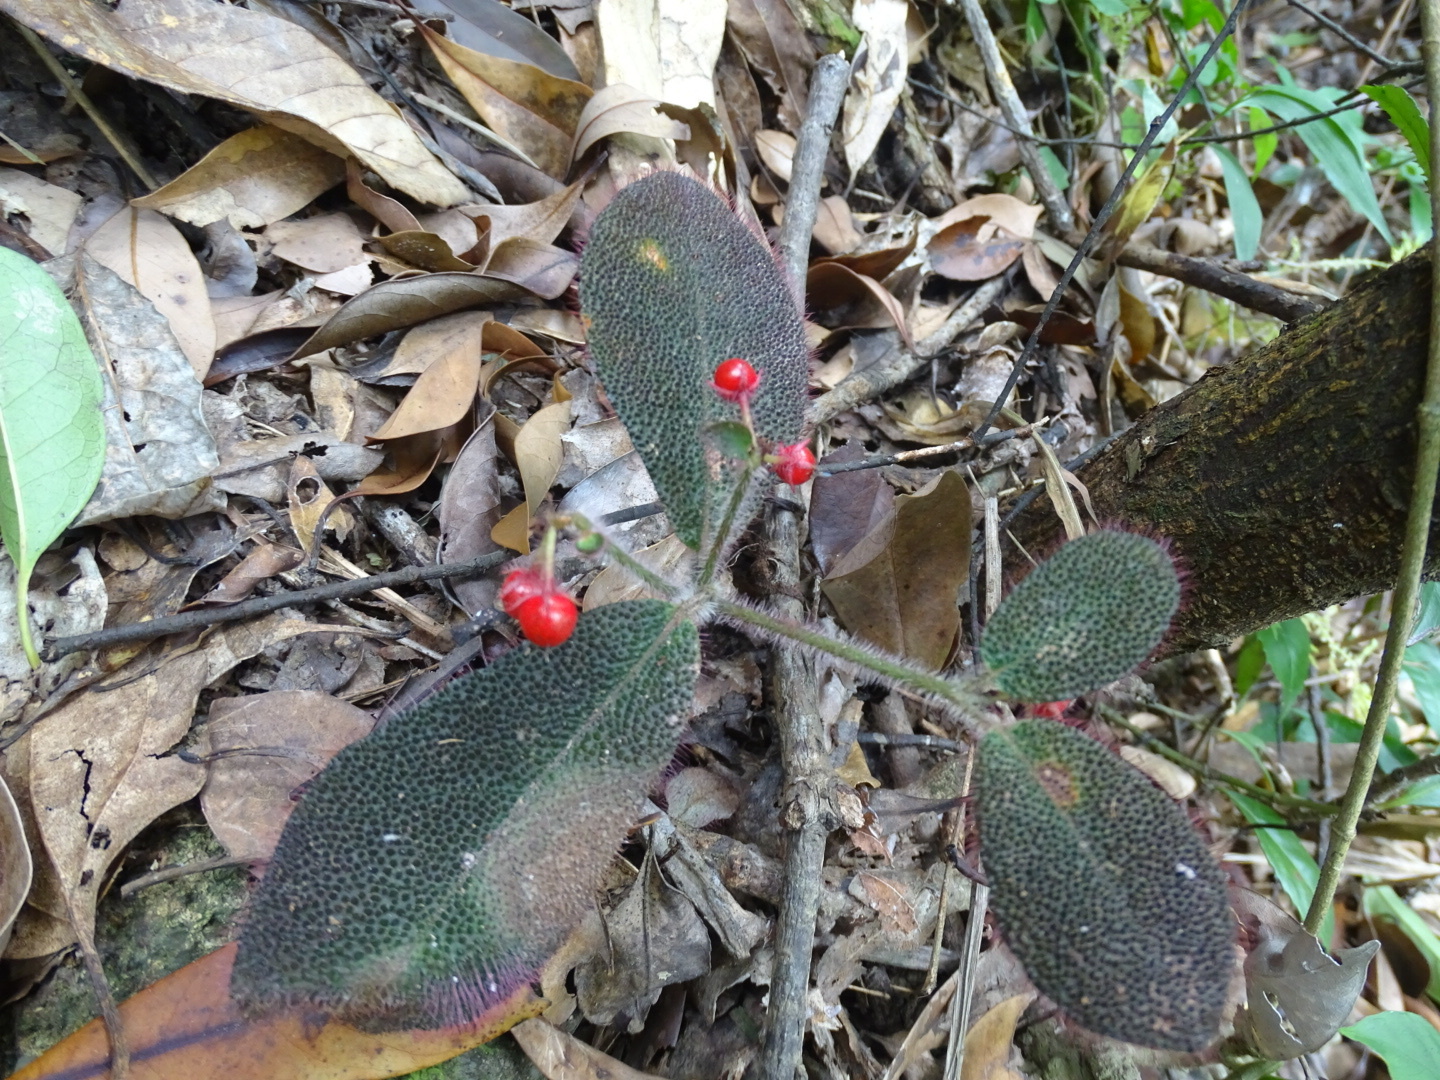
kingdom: Plantae
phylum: Tracheophyta
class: Magnoliopsida
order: Ericales
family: Primulaceae
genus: Ardisia
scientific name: Ardisia mamillata
